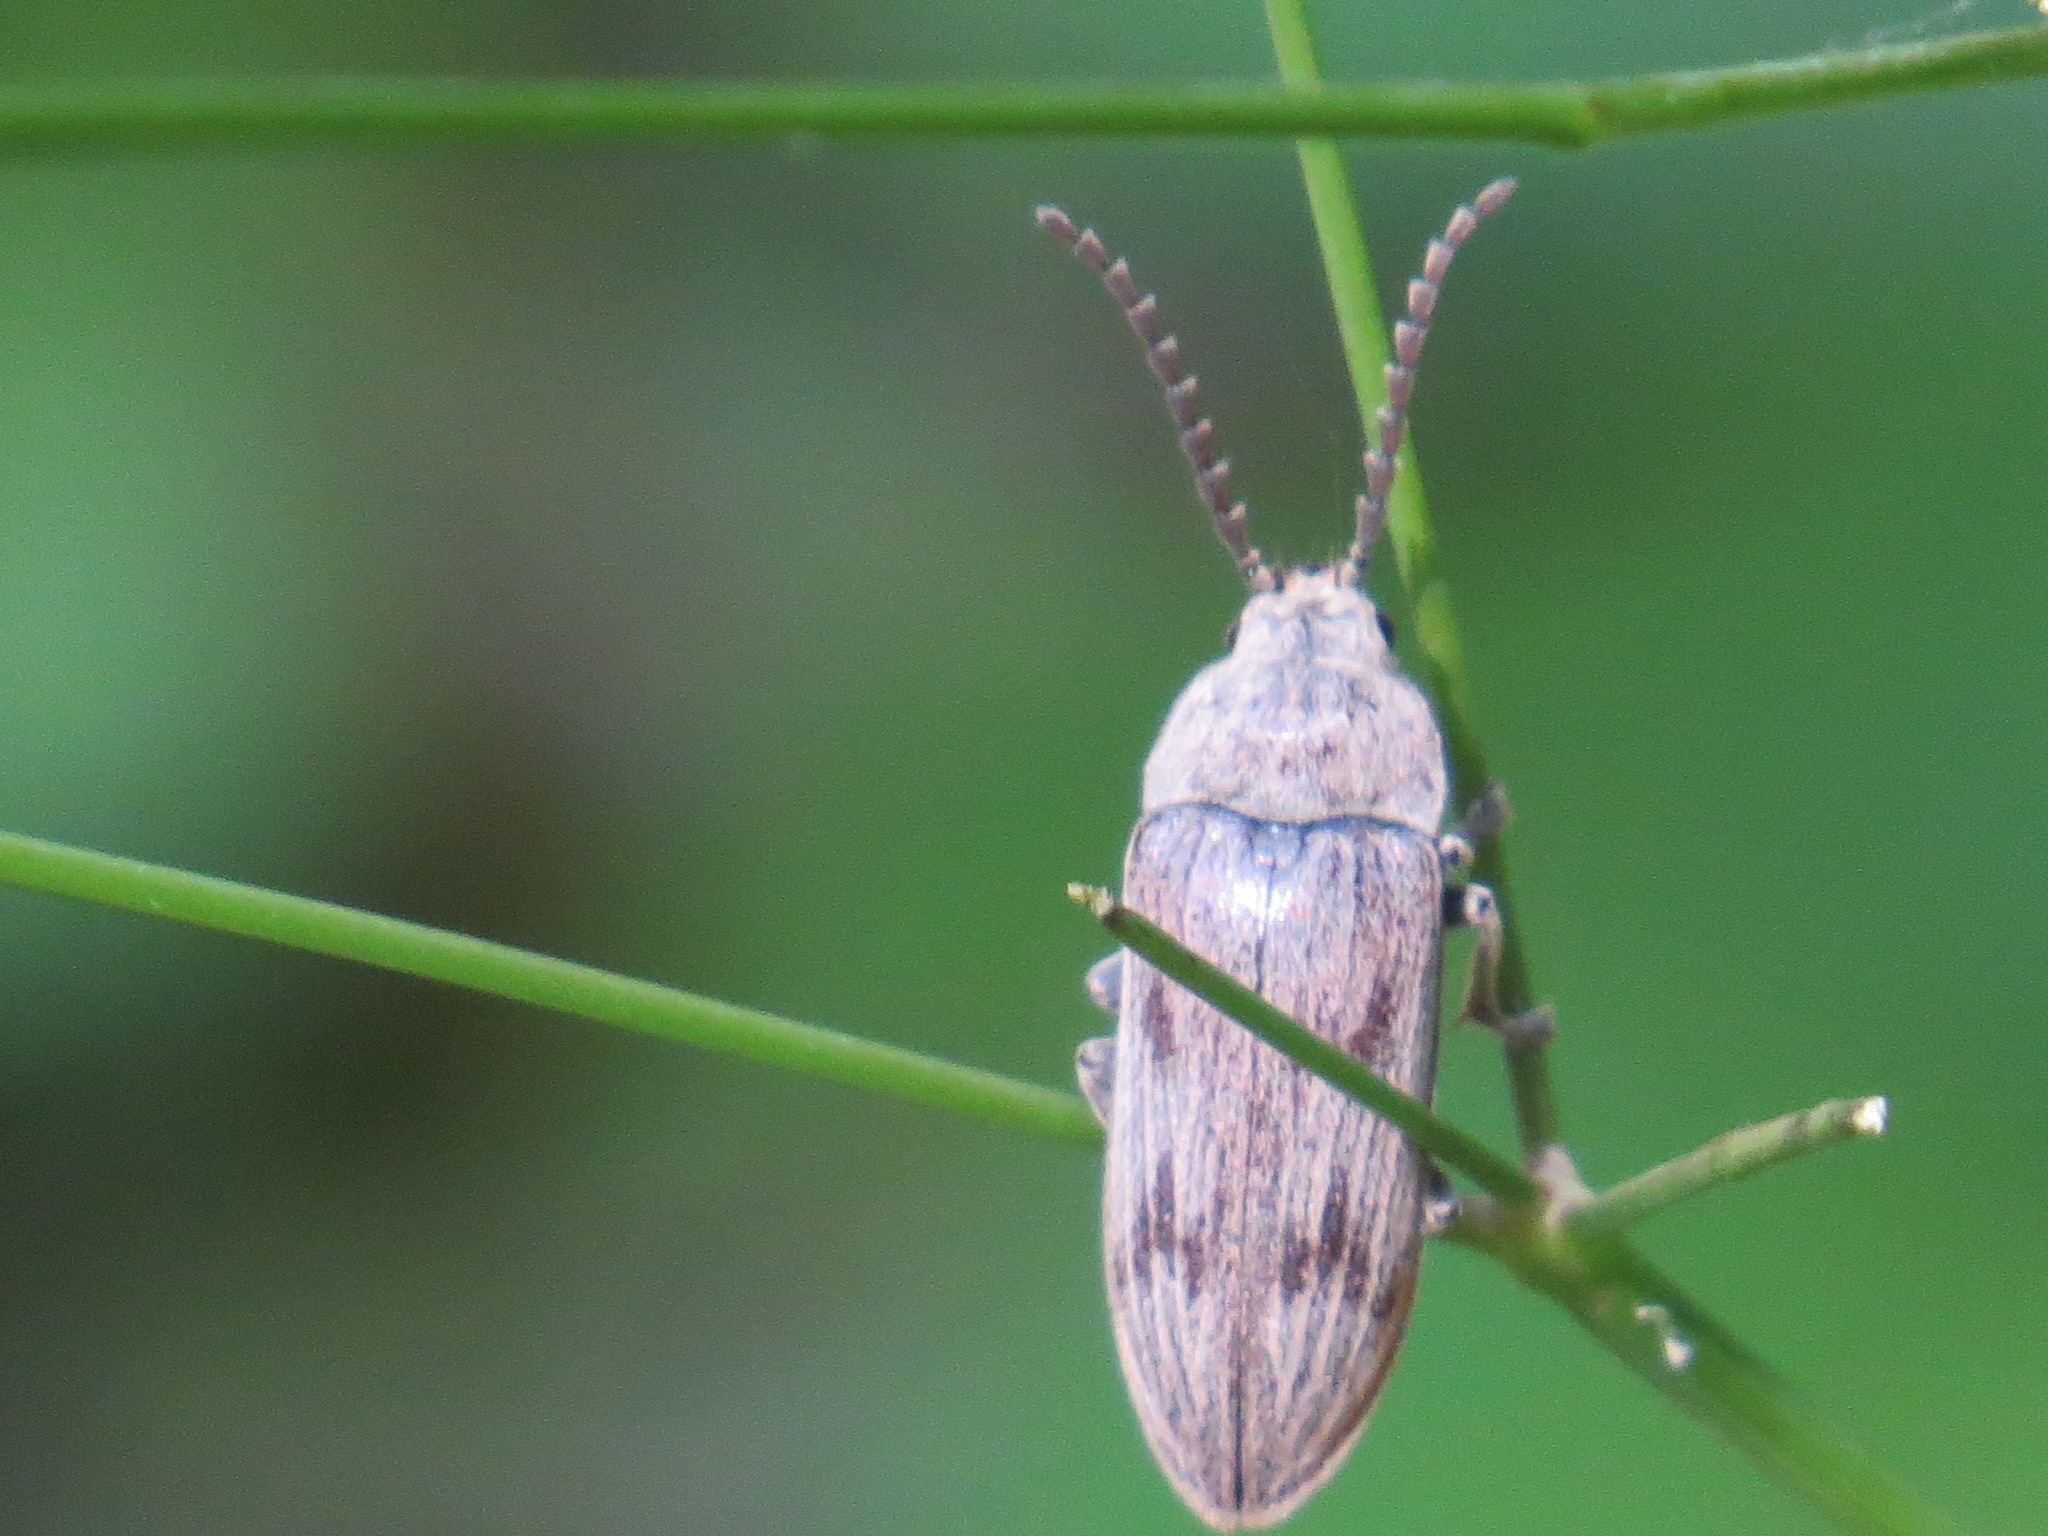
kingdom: Animalia
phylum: Arthropoda
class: Insecta
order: Coleoptera
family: Dascillidae
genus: Dascillus
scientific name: Dascillus davidsoni
